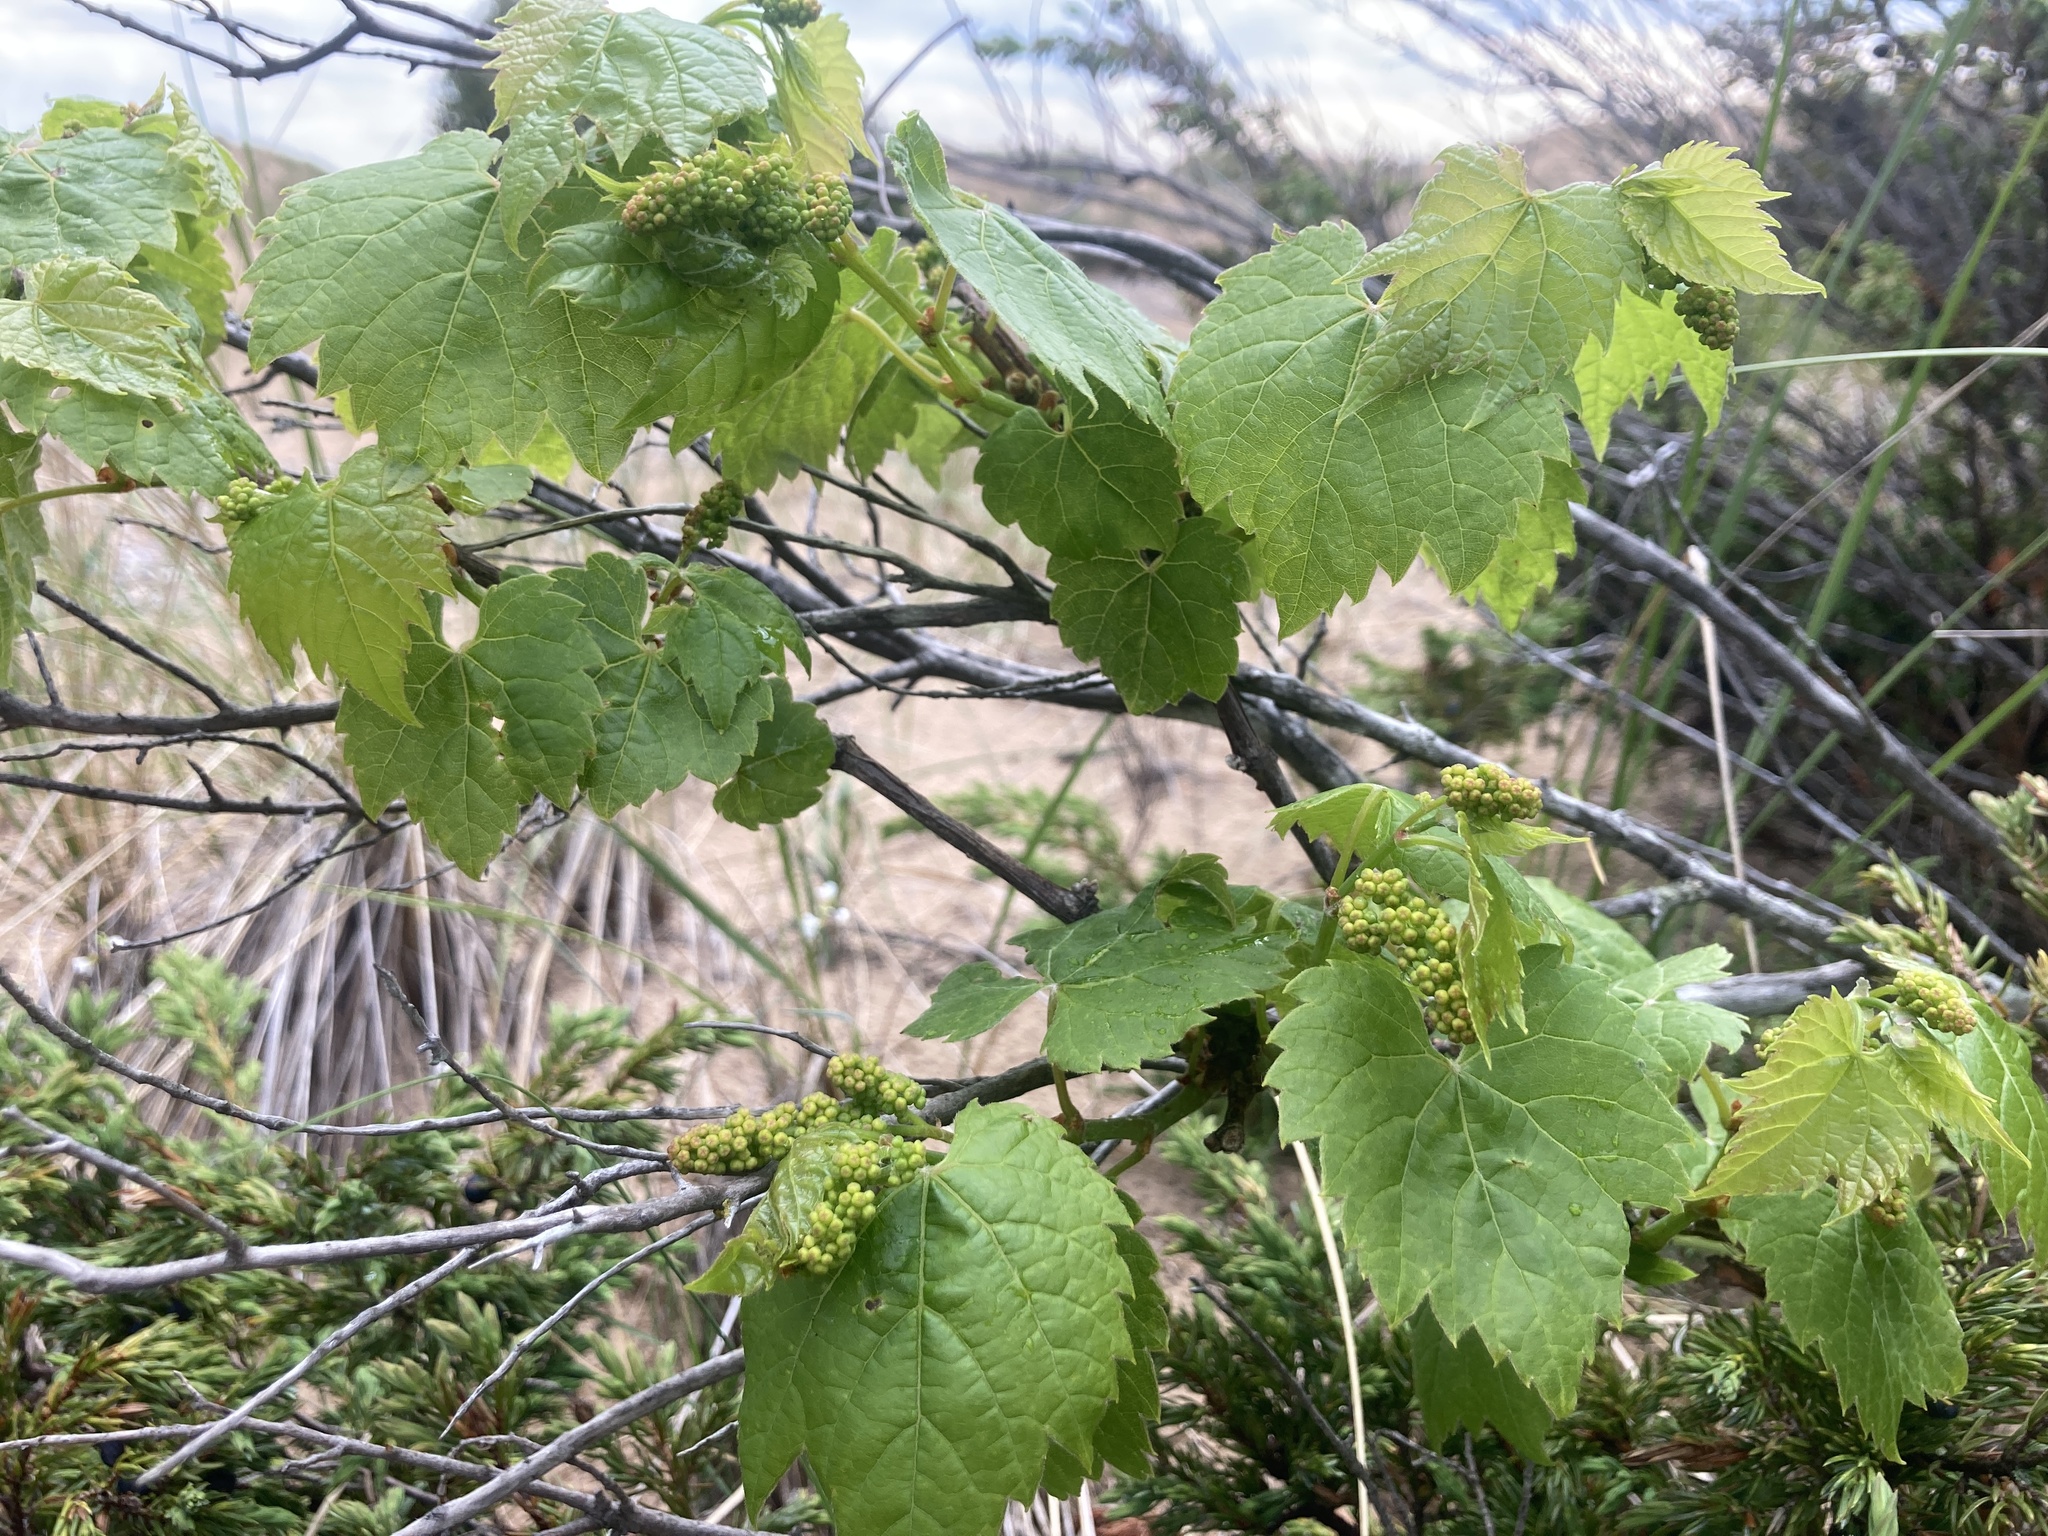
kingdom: Plantae
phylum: Tracheophyta
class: Magnoliopsida
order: Vitales
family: Vitaceae
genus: Vitis
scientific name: Vitis riparia
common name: Frost grape
